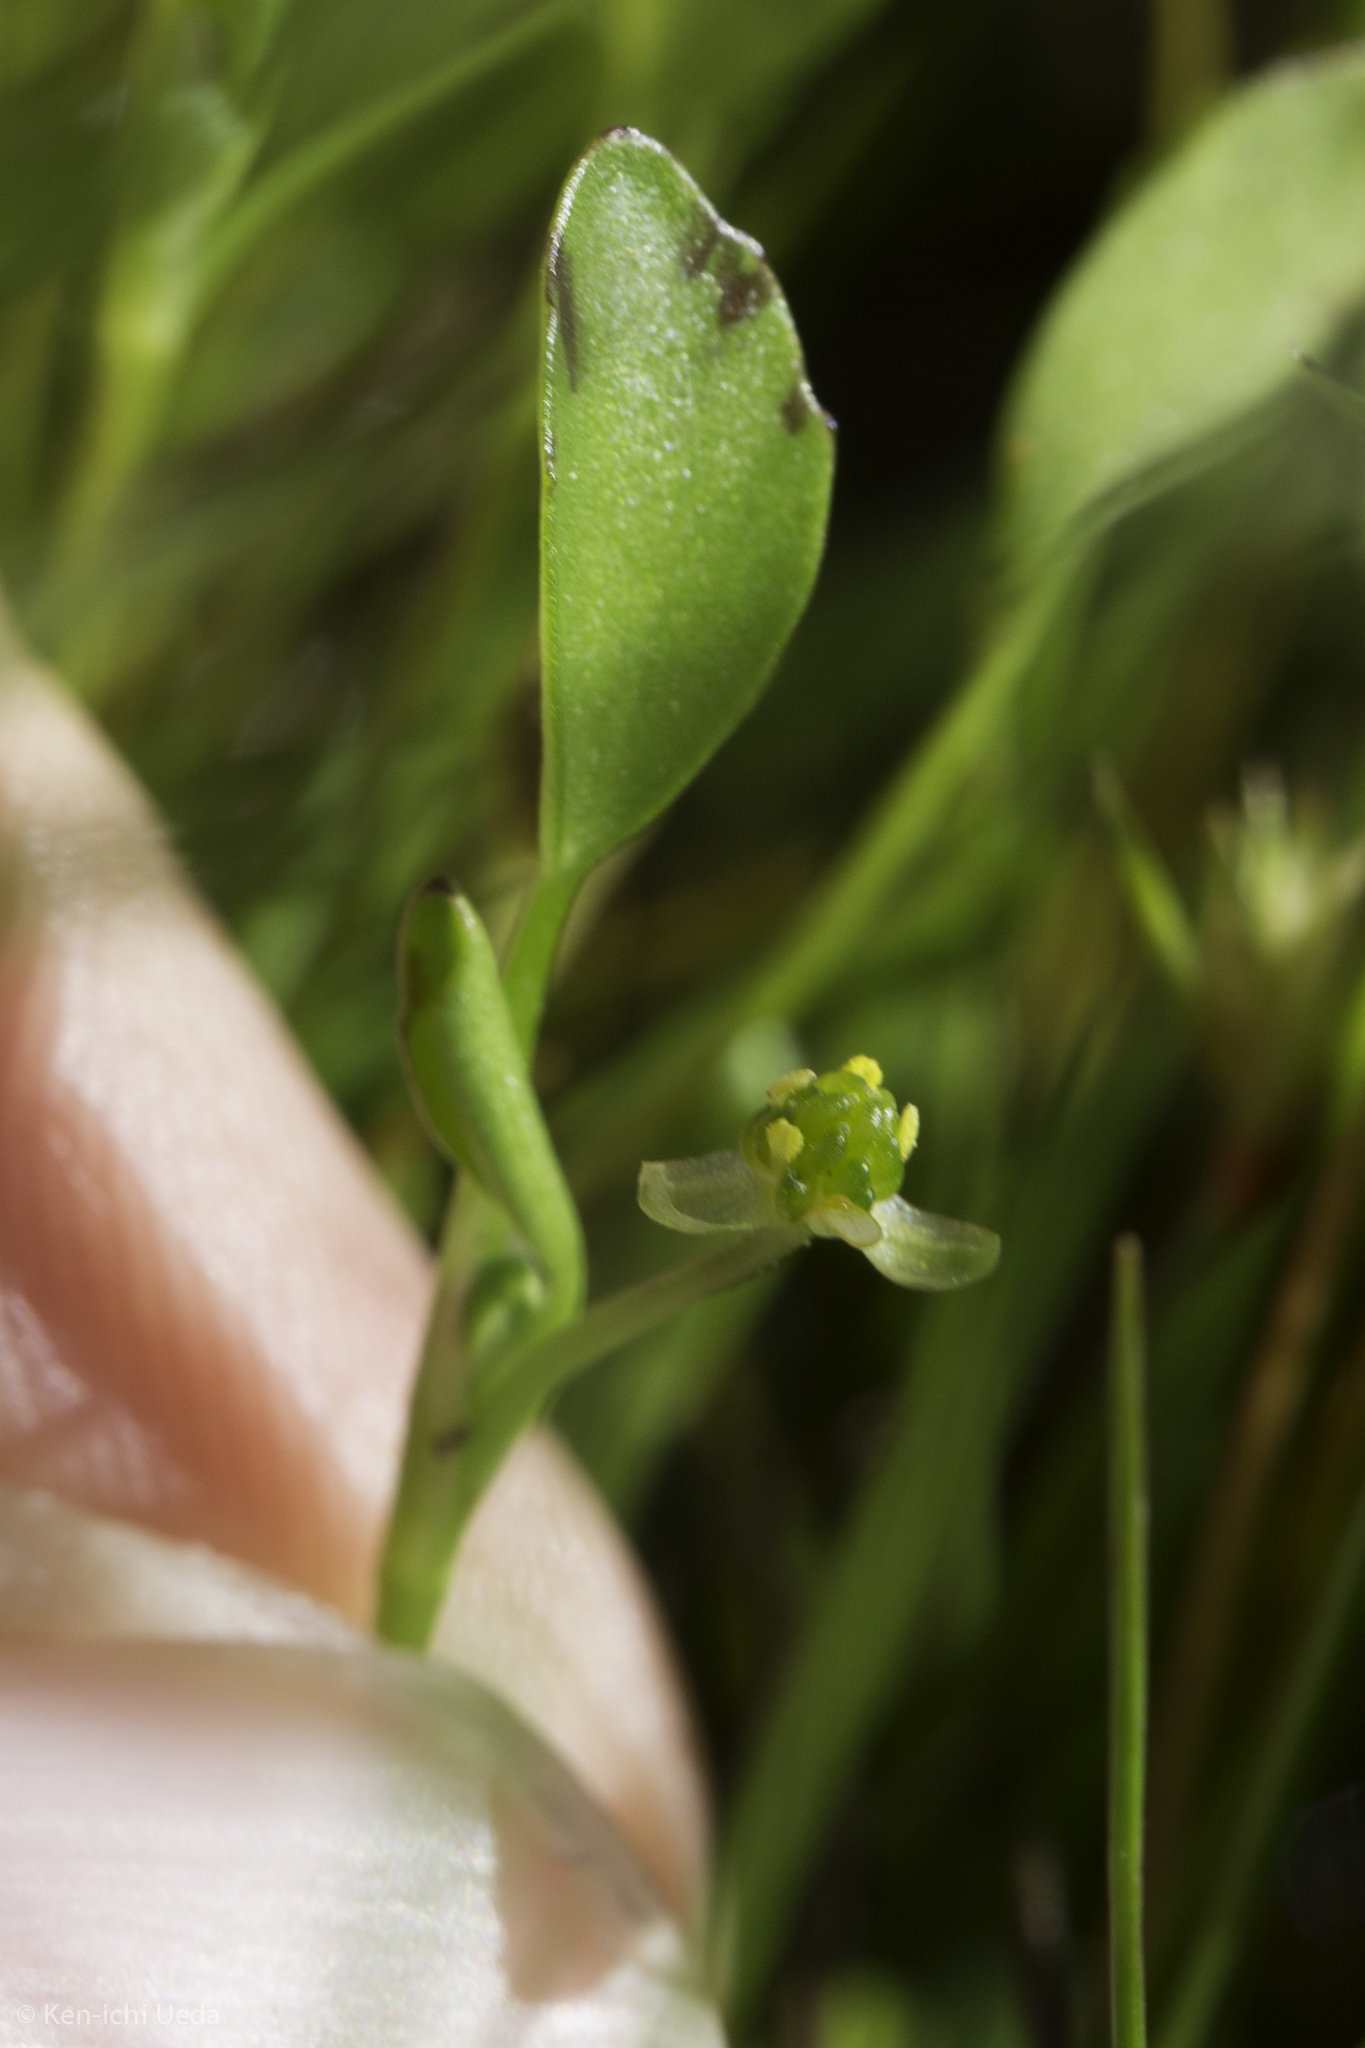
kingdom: Plantae
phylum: Tracheophyta
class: Magnoliopsida
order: Ranunculales
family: Ranunculaceae
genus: Ranunculus
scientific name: Ranunculus bonariensis
